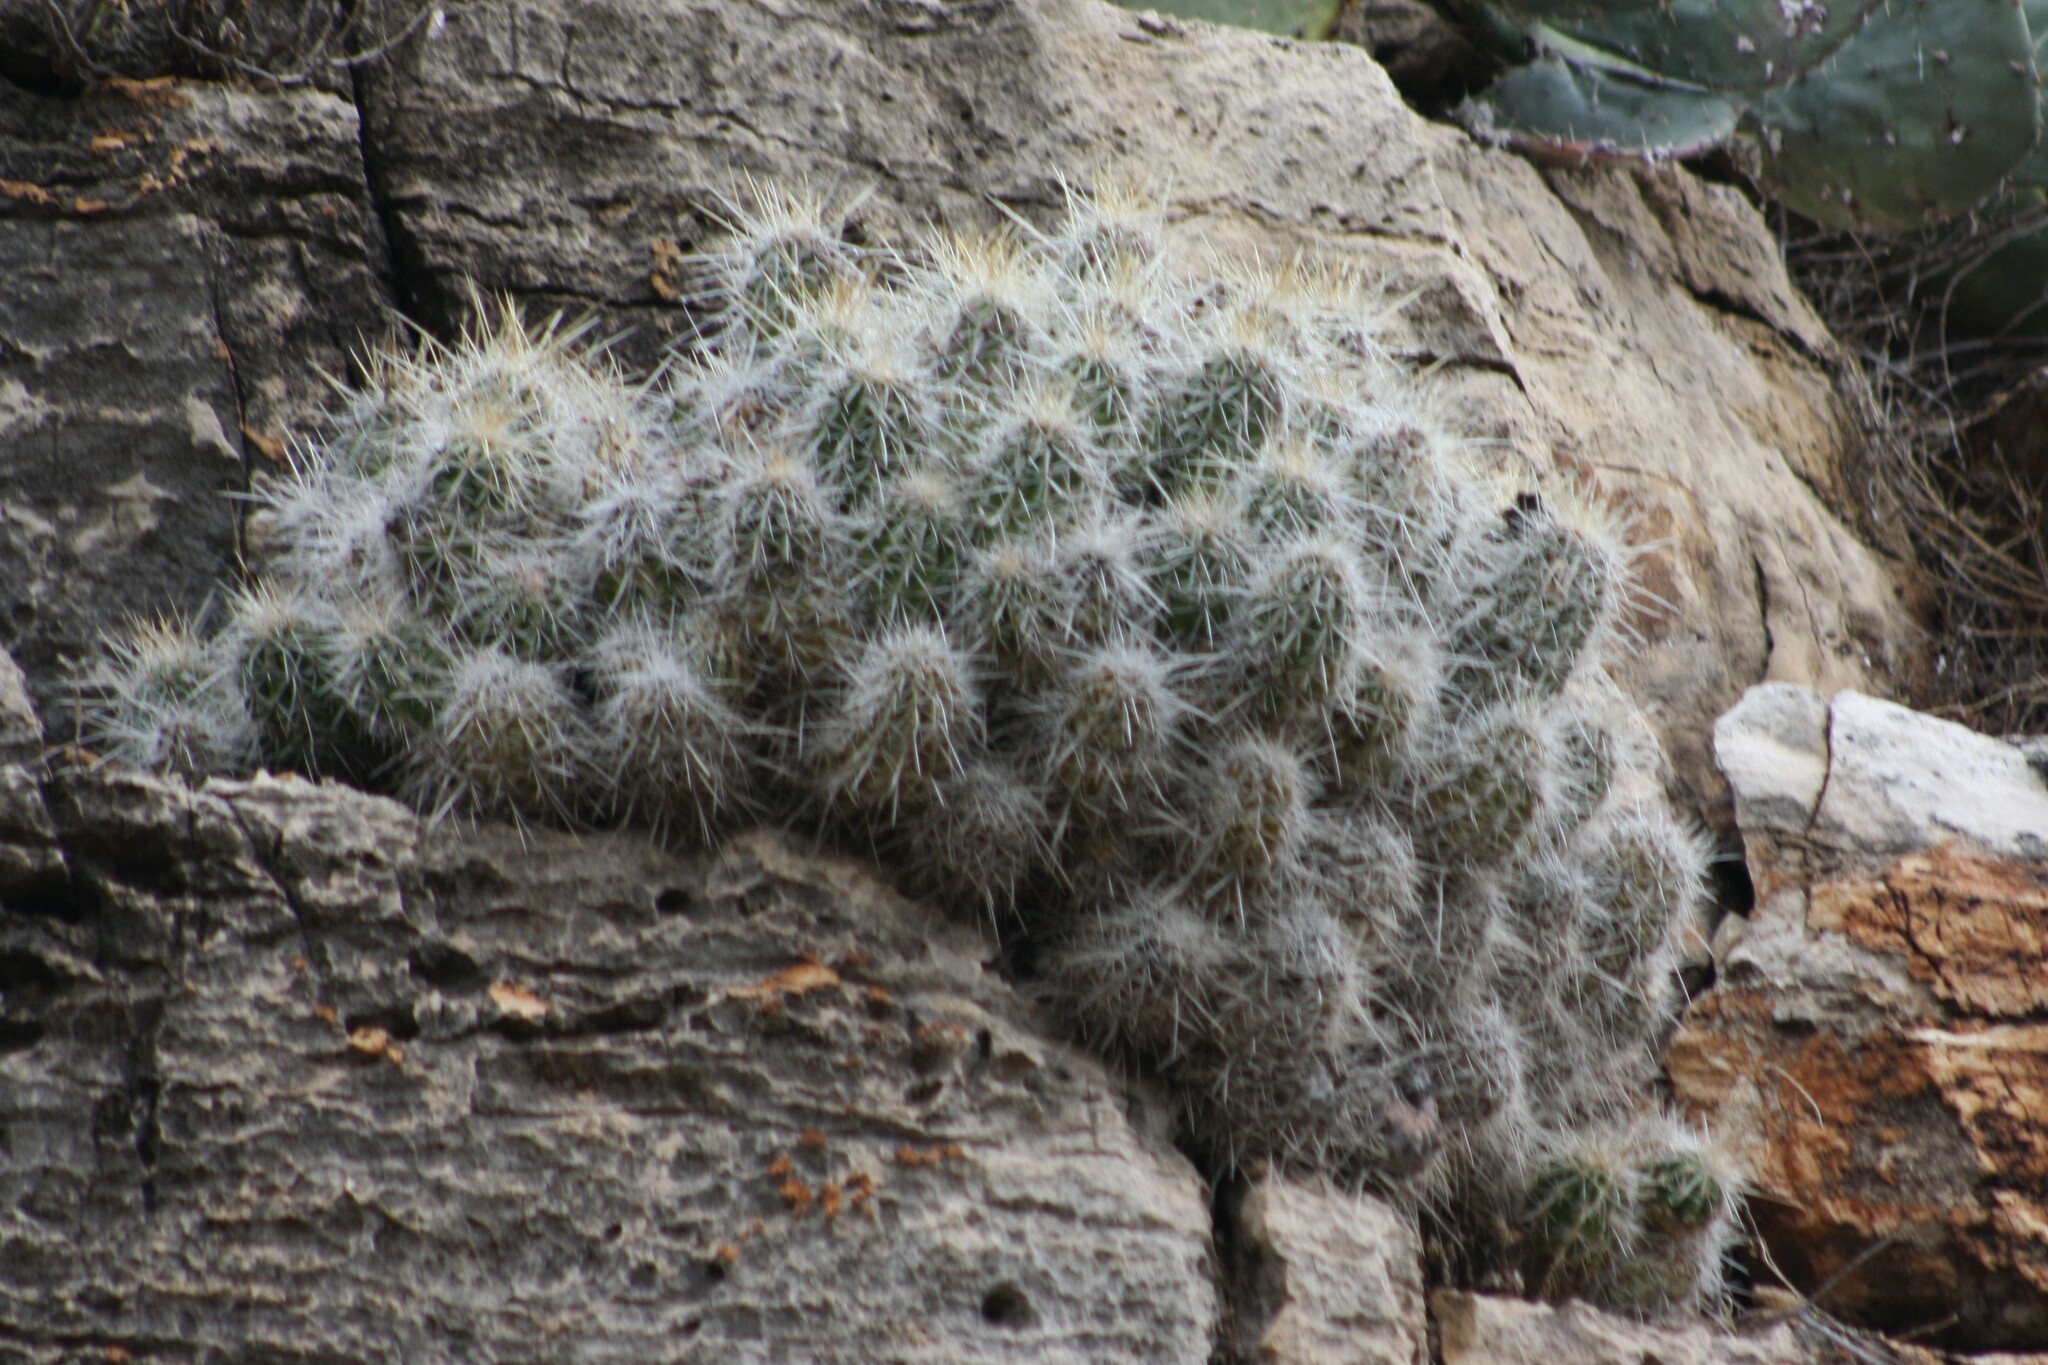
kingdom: Plantae
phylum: Tracheophyta
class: Magnoliopsida
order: Caryophyllales
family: Cactaceae
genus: Echinocereus
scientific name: Echinocereus stramineus
